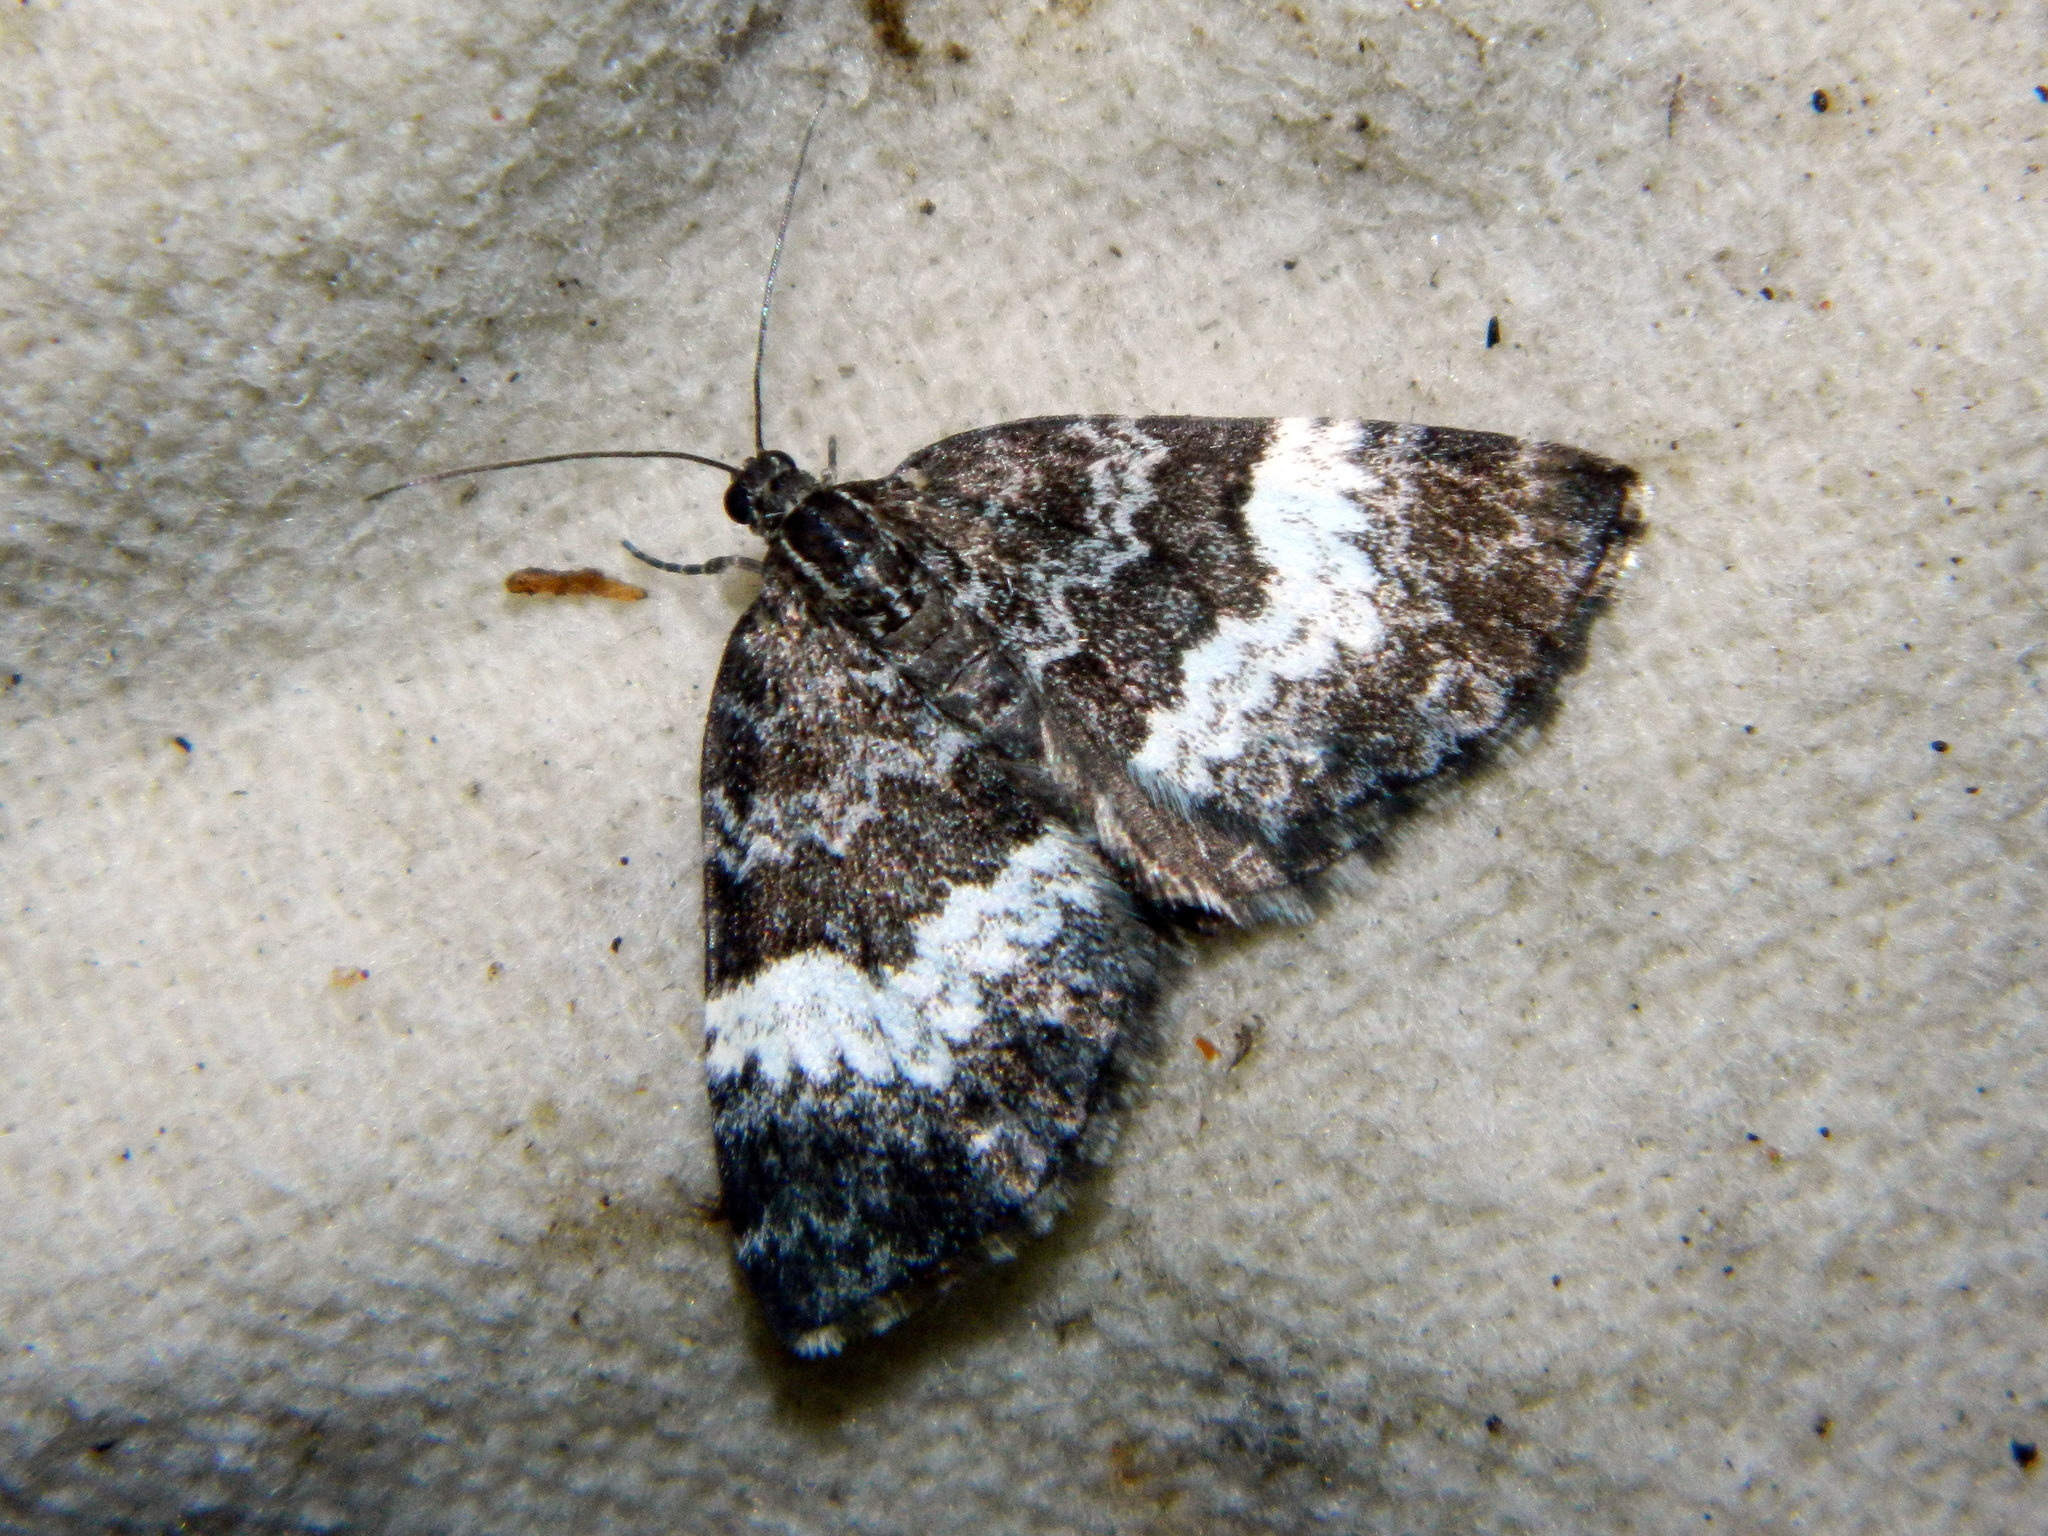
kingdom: Animalia
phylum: Arthropoda
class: Insecta
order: Lepidoptera
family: Geometridae
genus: Spargania
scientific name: Spargania luctuata
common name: White-banded carpet
